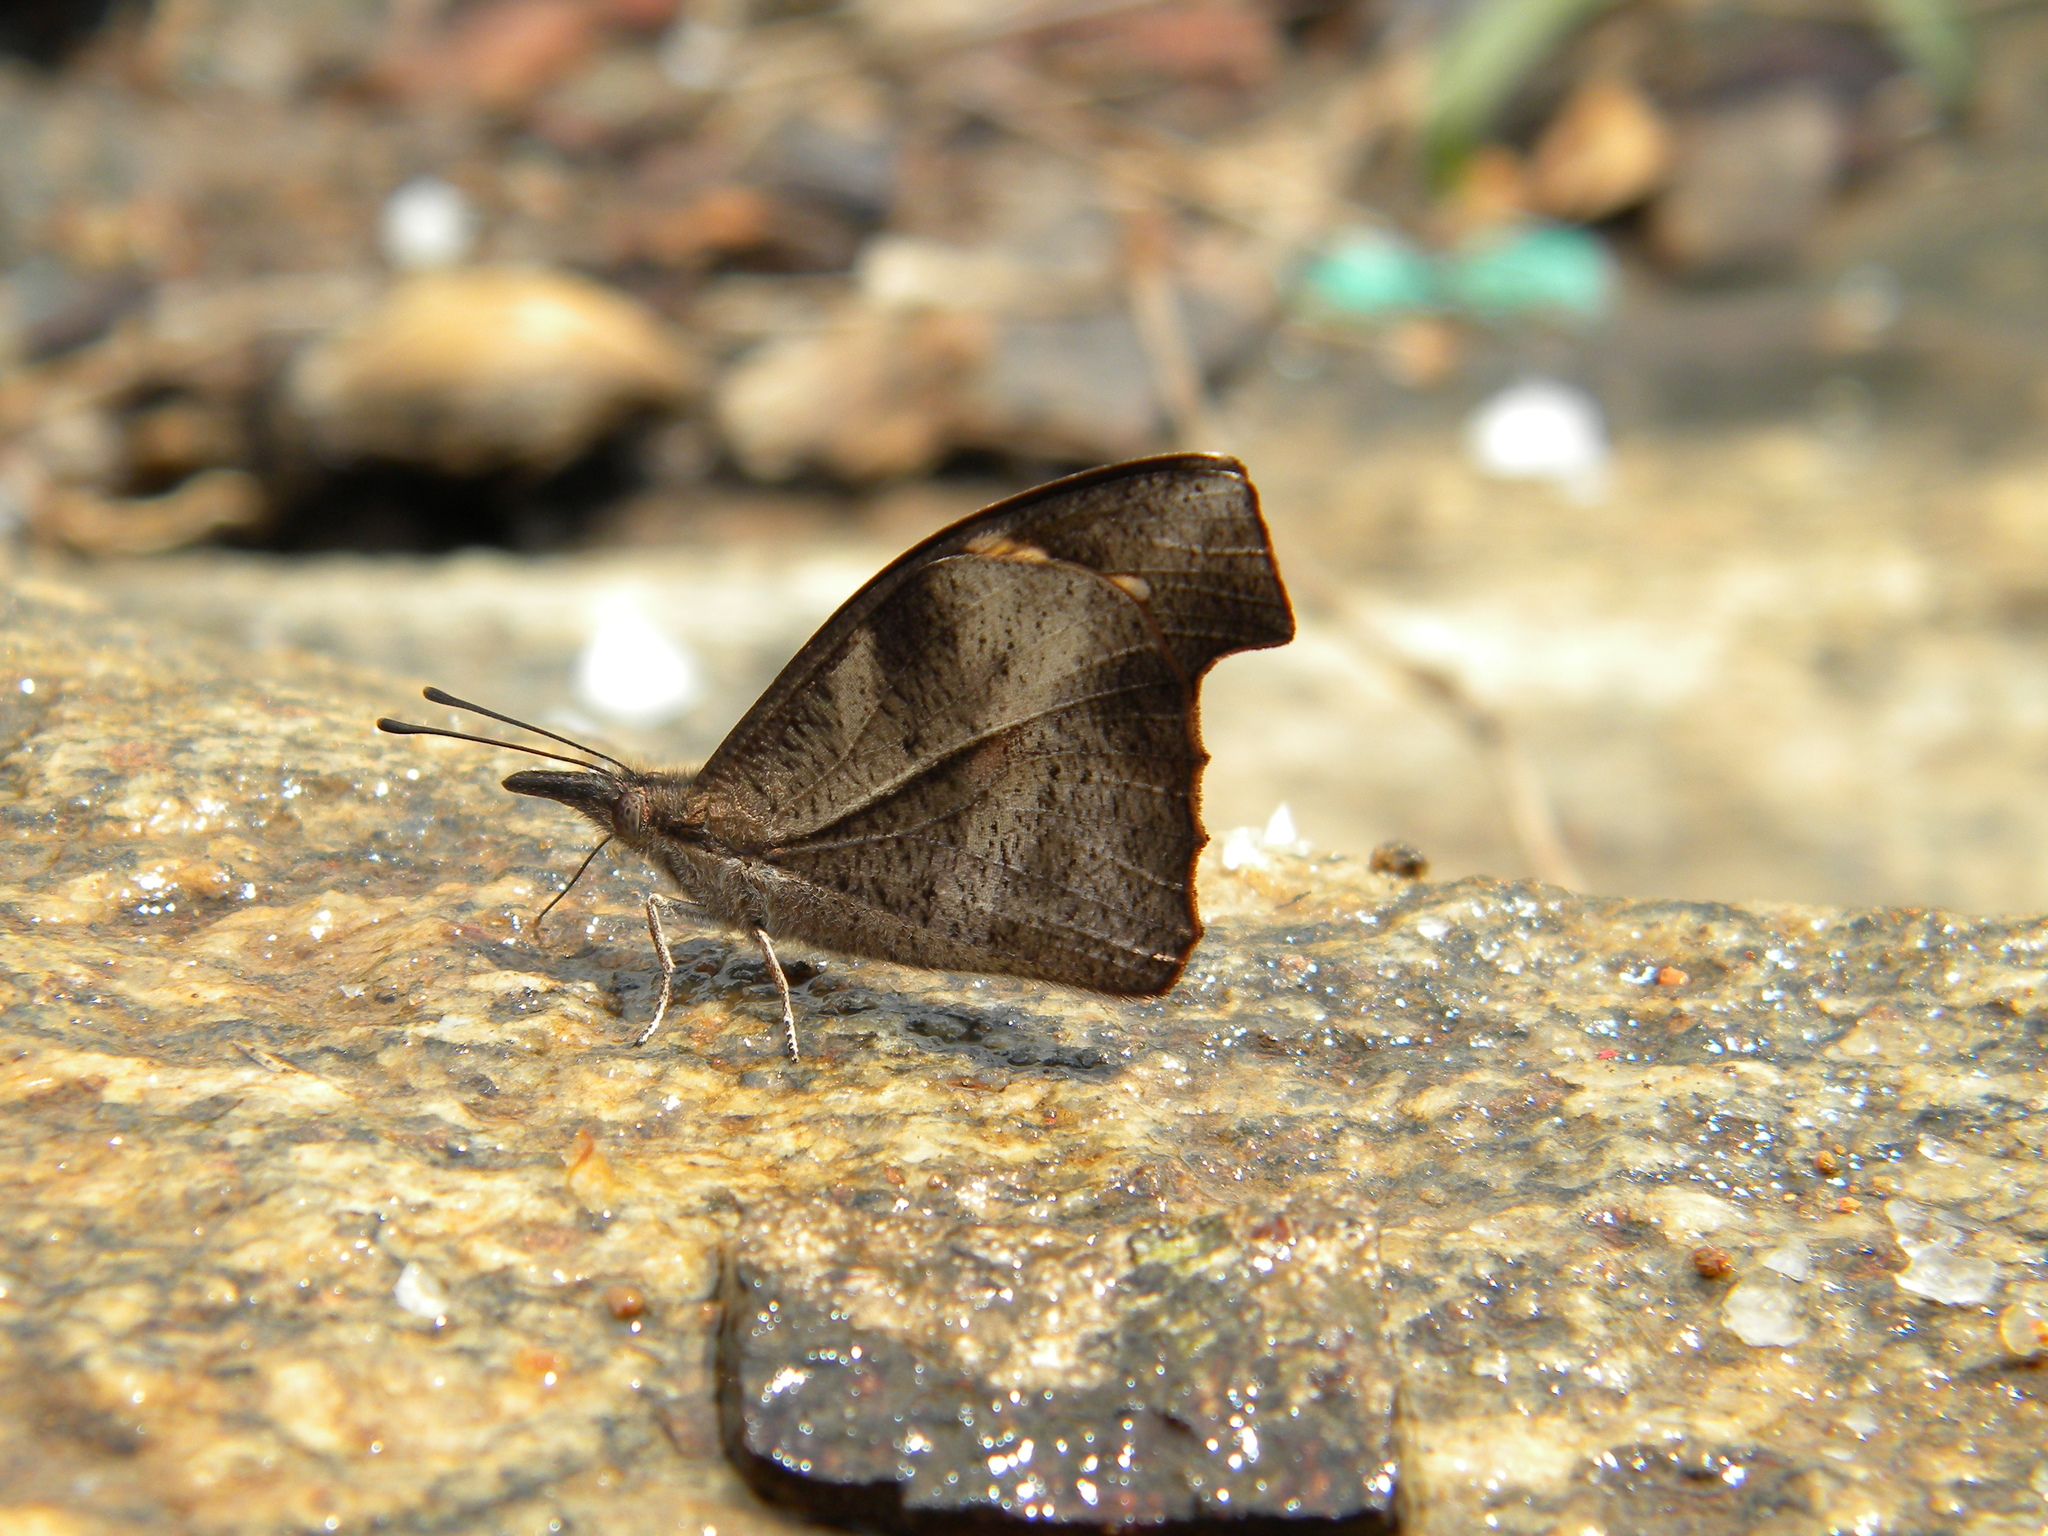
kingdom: Animalia
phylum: Arthropoda
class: Insecta
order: Lepidoptera
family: Nymphalidae
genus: Libythea
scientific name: Libythea lepita
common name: Common beak
